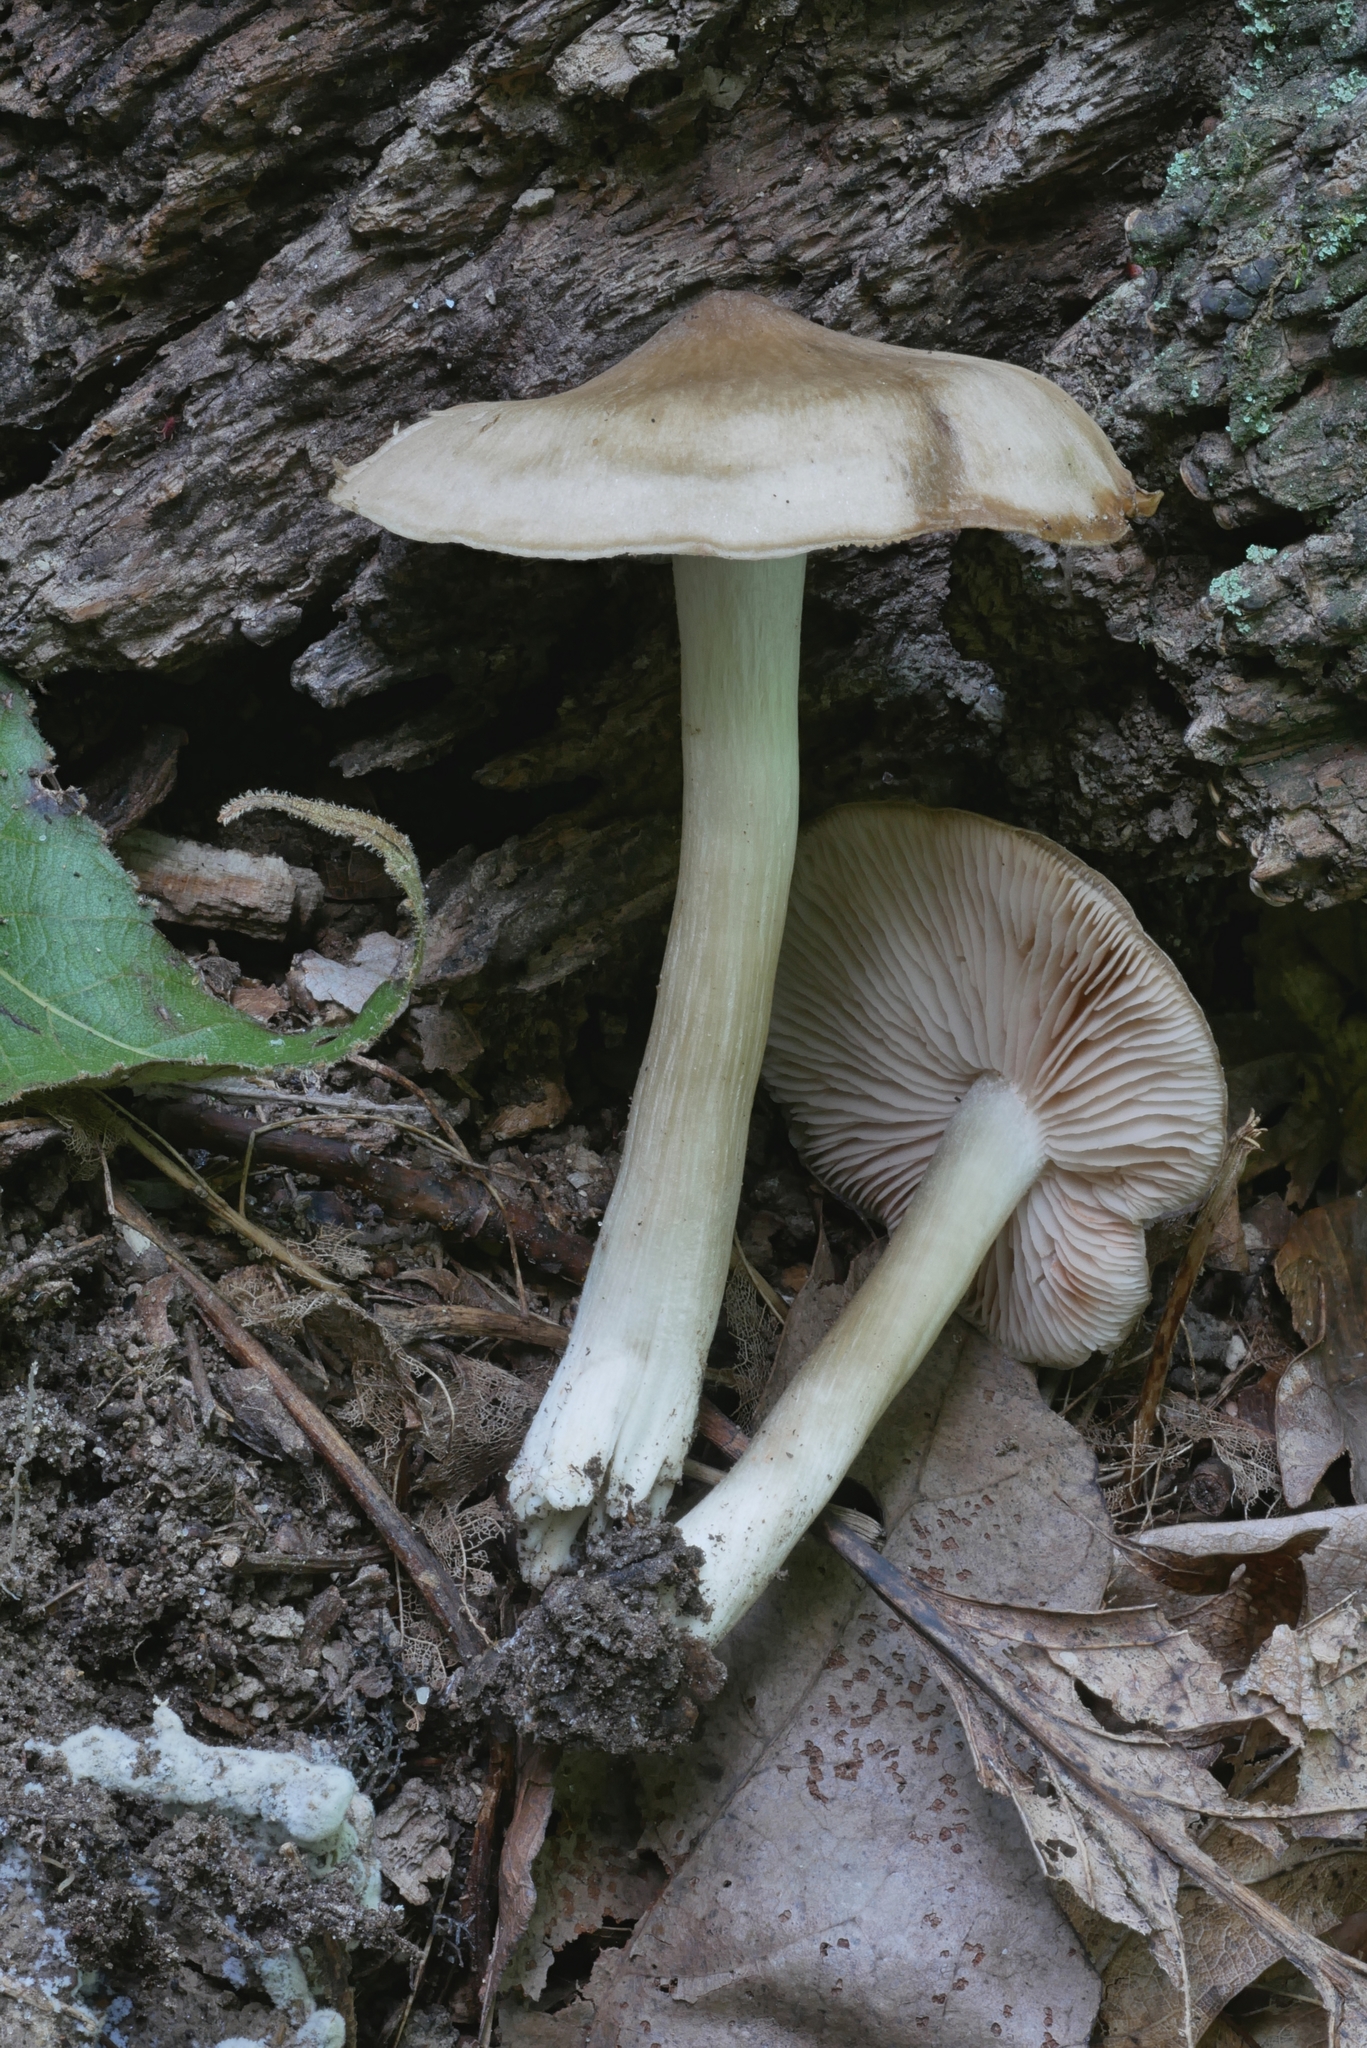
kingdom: Fungi
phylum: Basidiomycota
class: Agaricomycetes
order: Agaricales
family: Entolomataceae
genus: Entoloma
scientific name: Entoloma griseum
